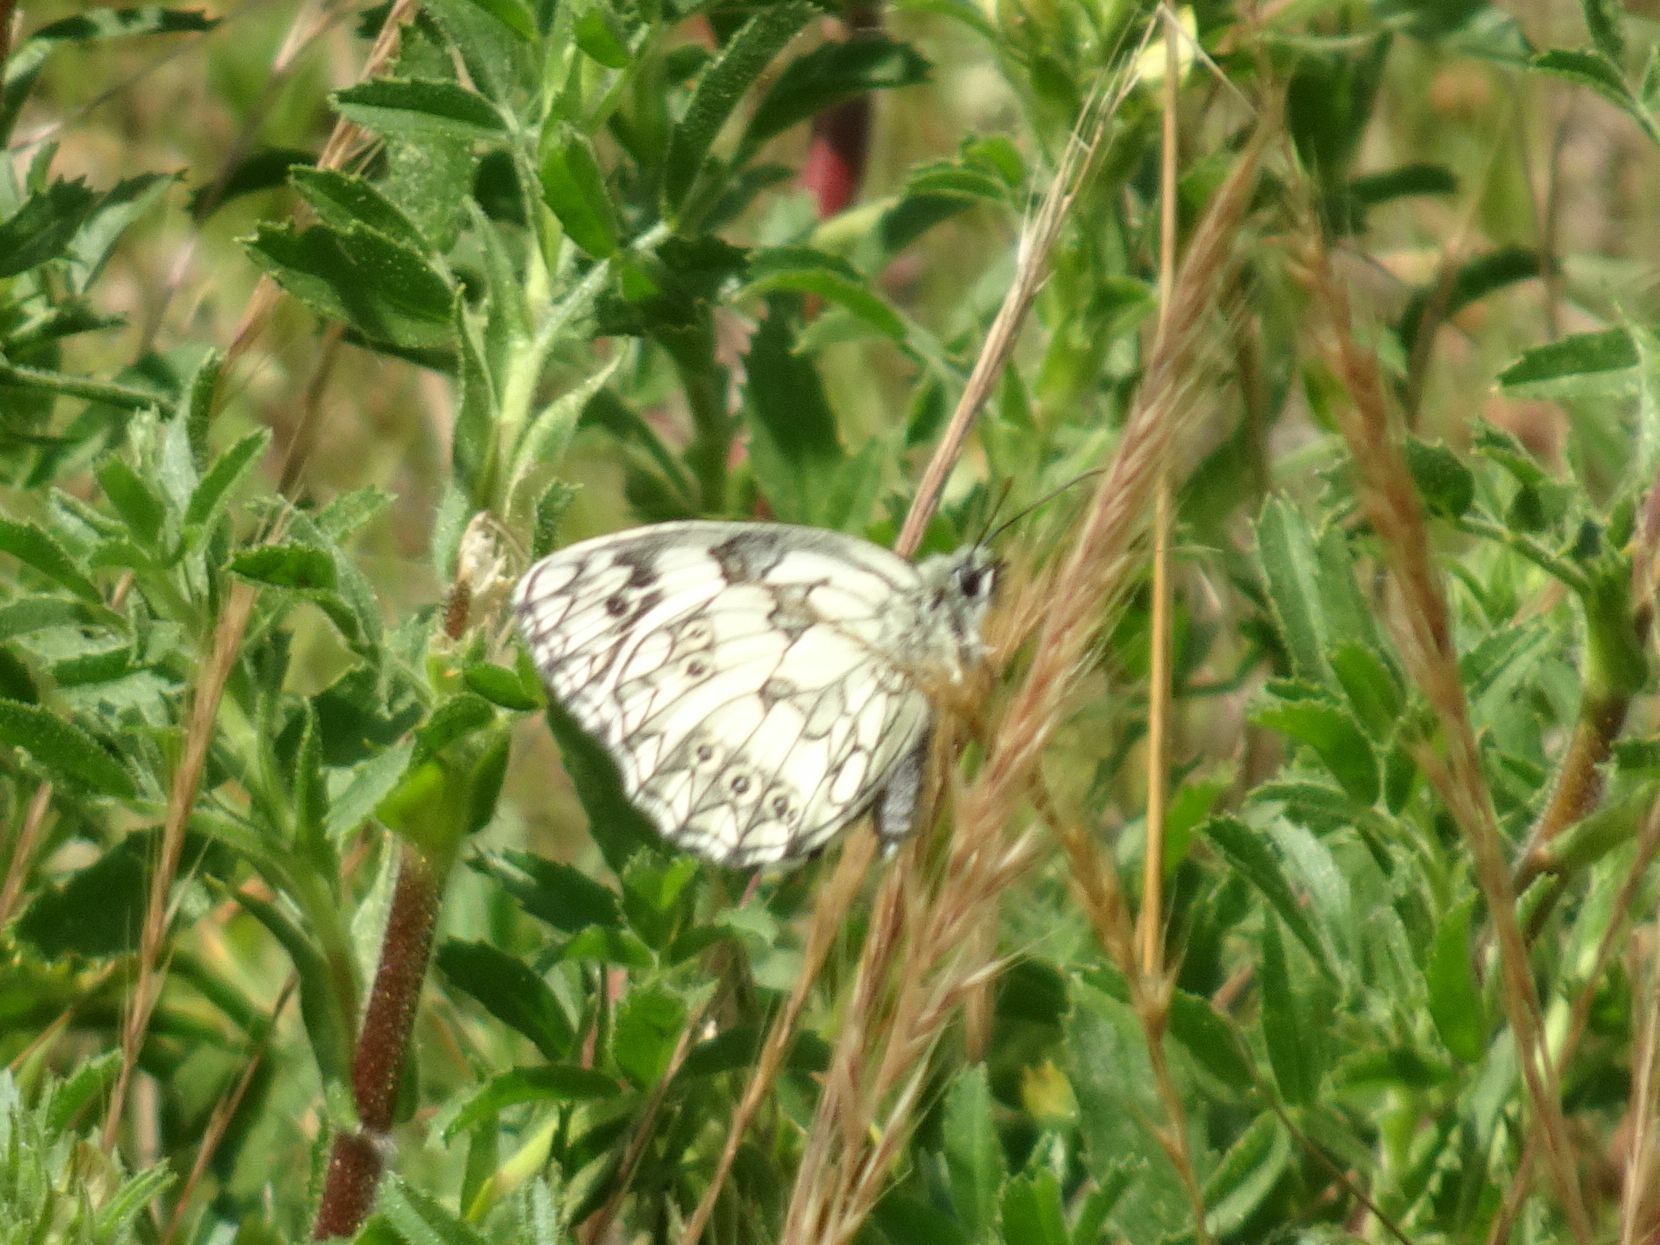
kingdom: Animalia
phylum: Arthropoda
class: Insecta
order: Lepidoptera
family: Nymphalidae
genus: Melanargia
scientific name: Melanargia galathea
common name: Marbled white
